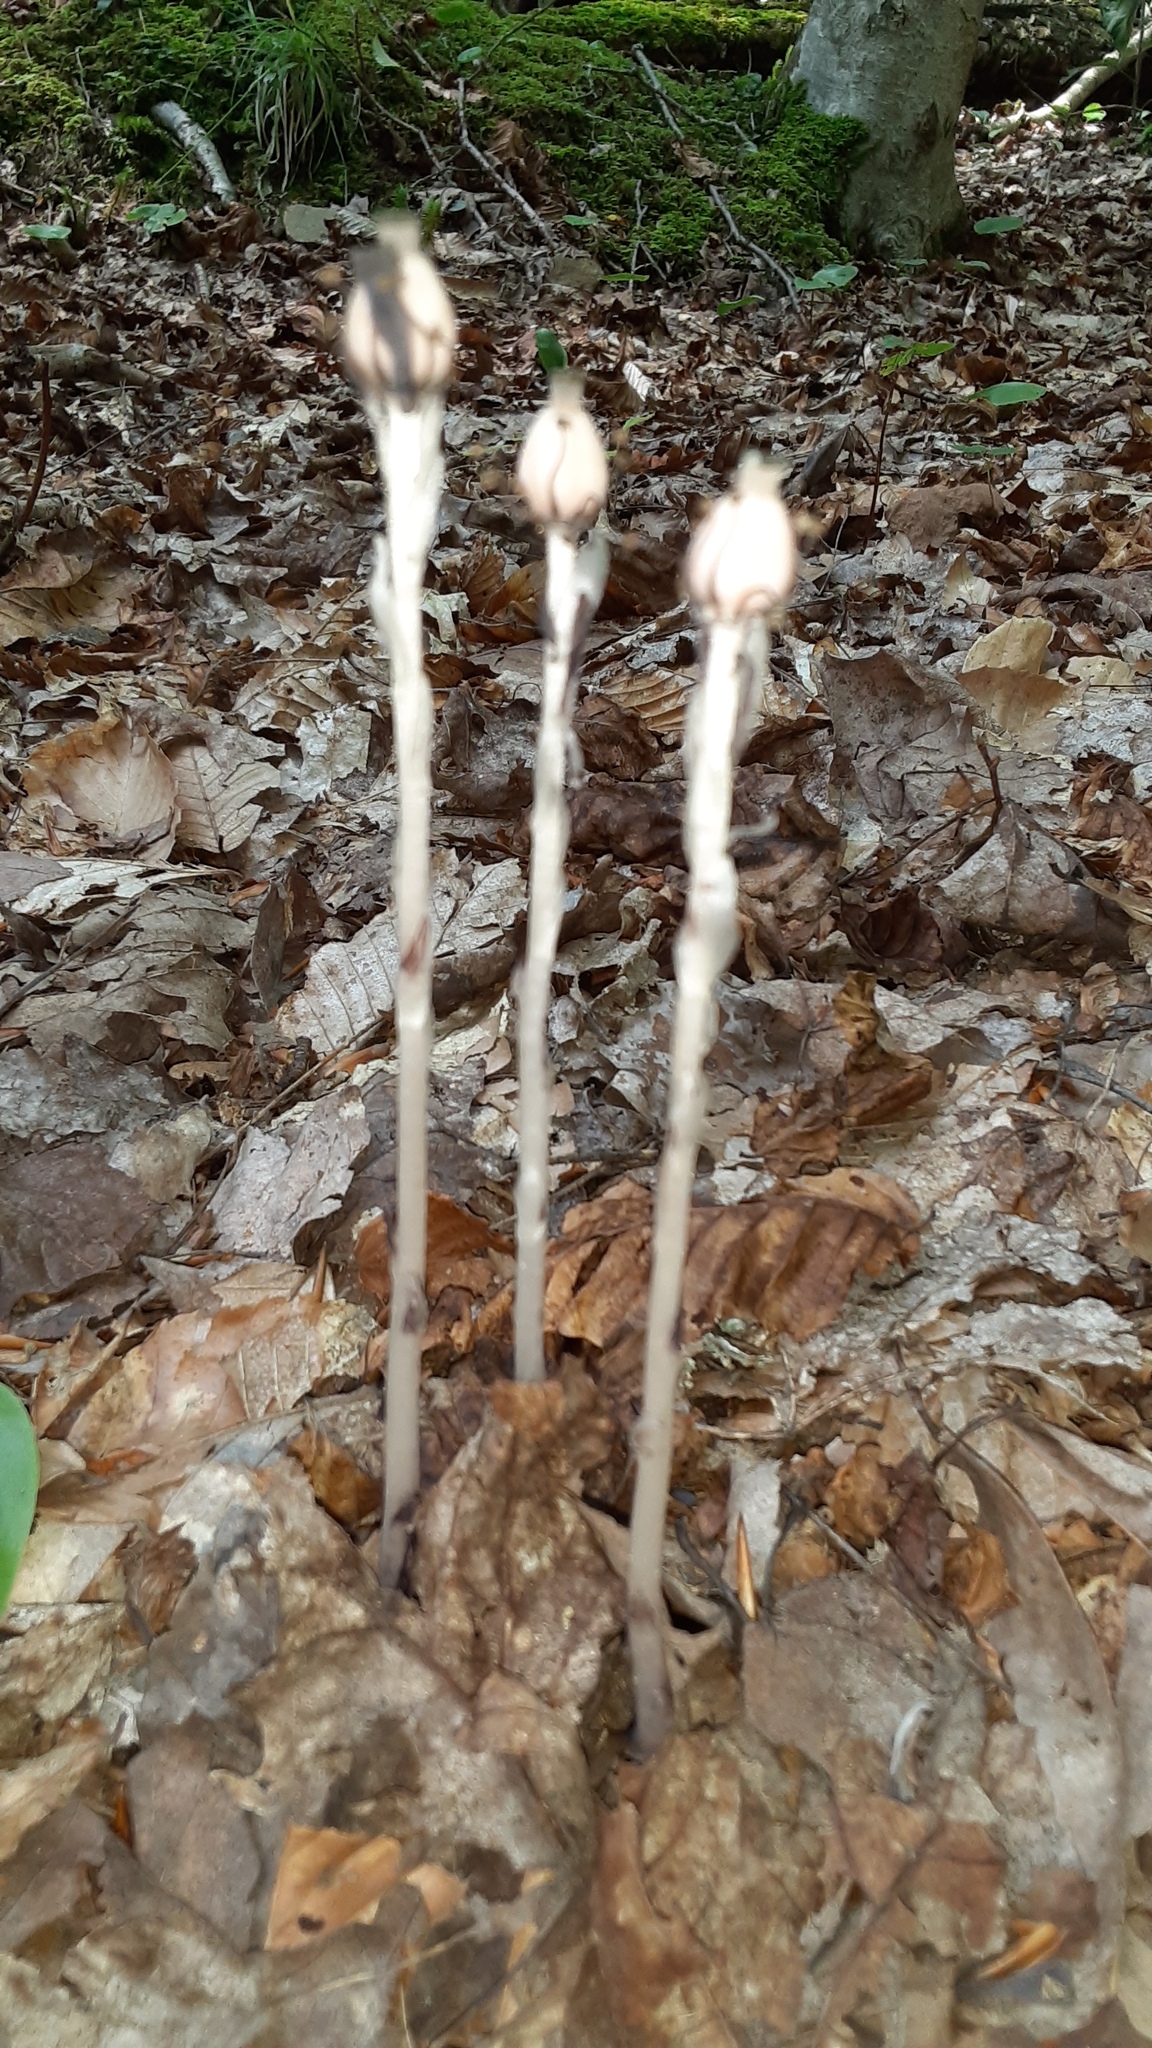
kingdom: Plantae
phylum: Tracheophyta
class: Magnoliopsida
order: Ericales
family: Ericaceae
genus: Monotropa
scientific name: Monotropa uniflora
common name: Convulsion root
